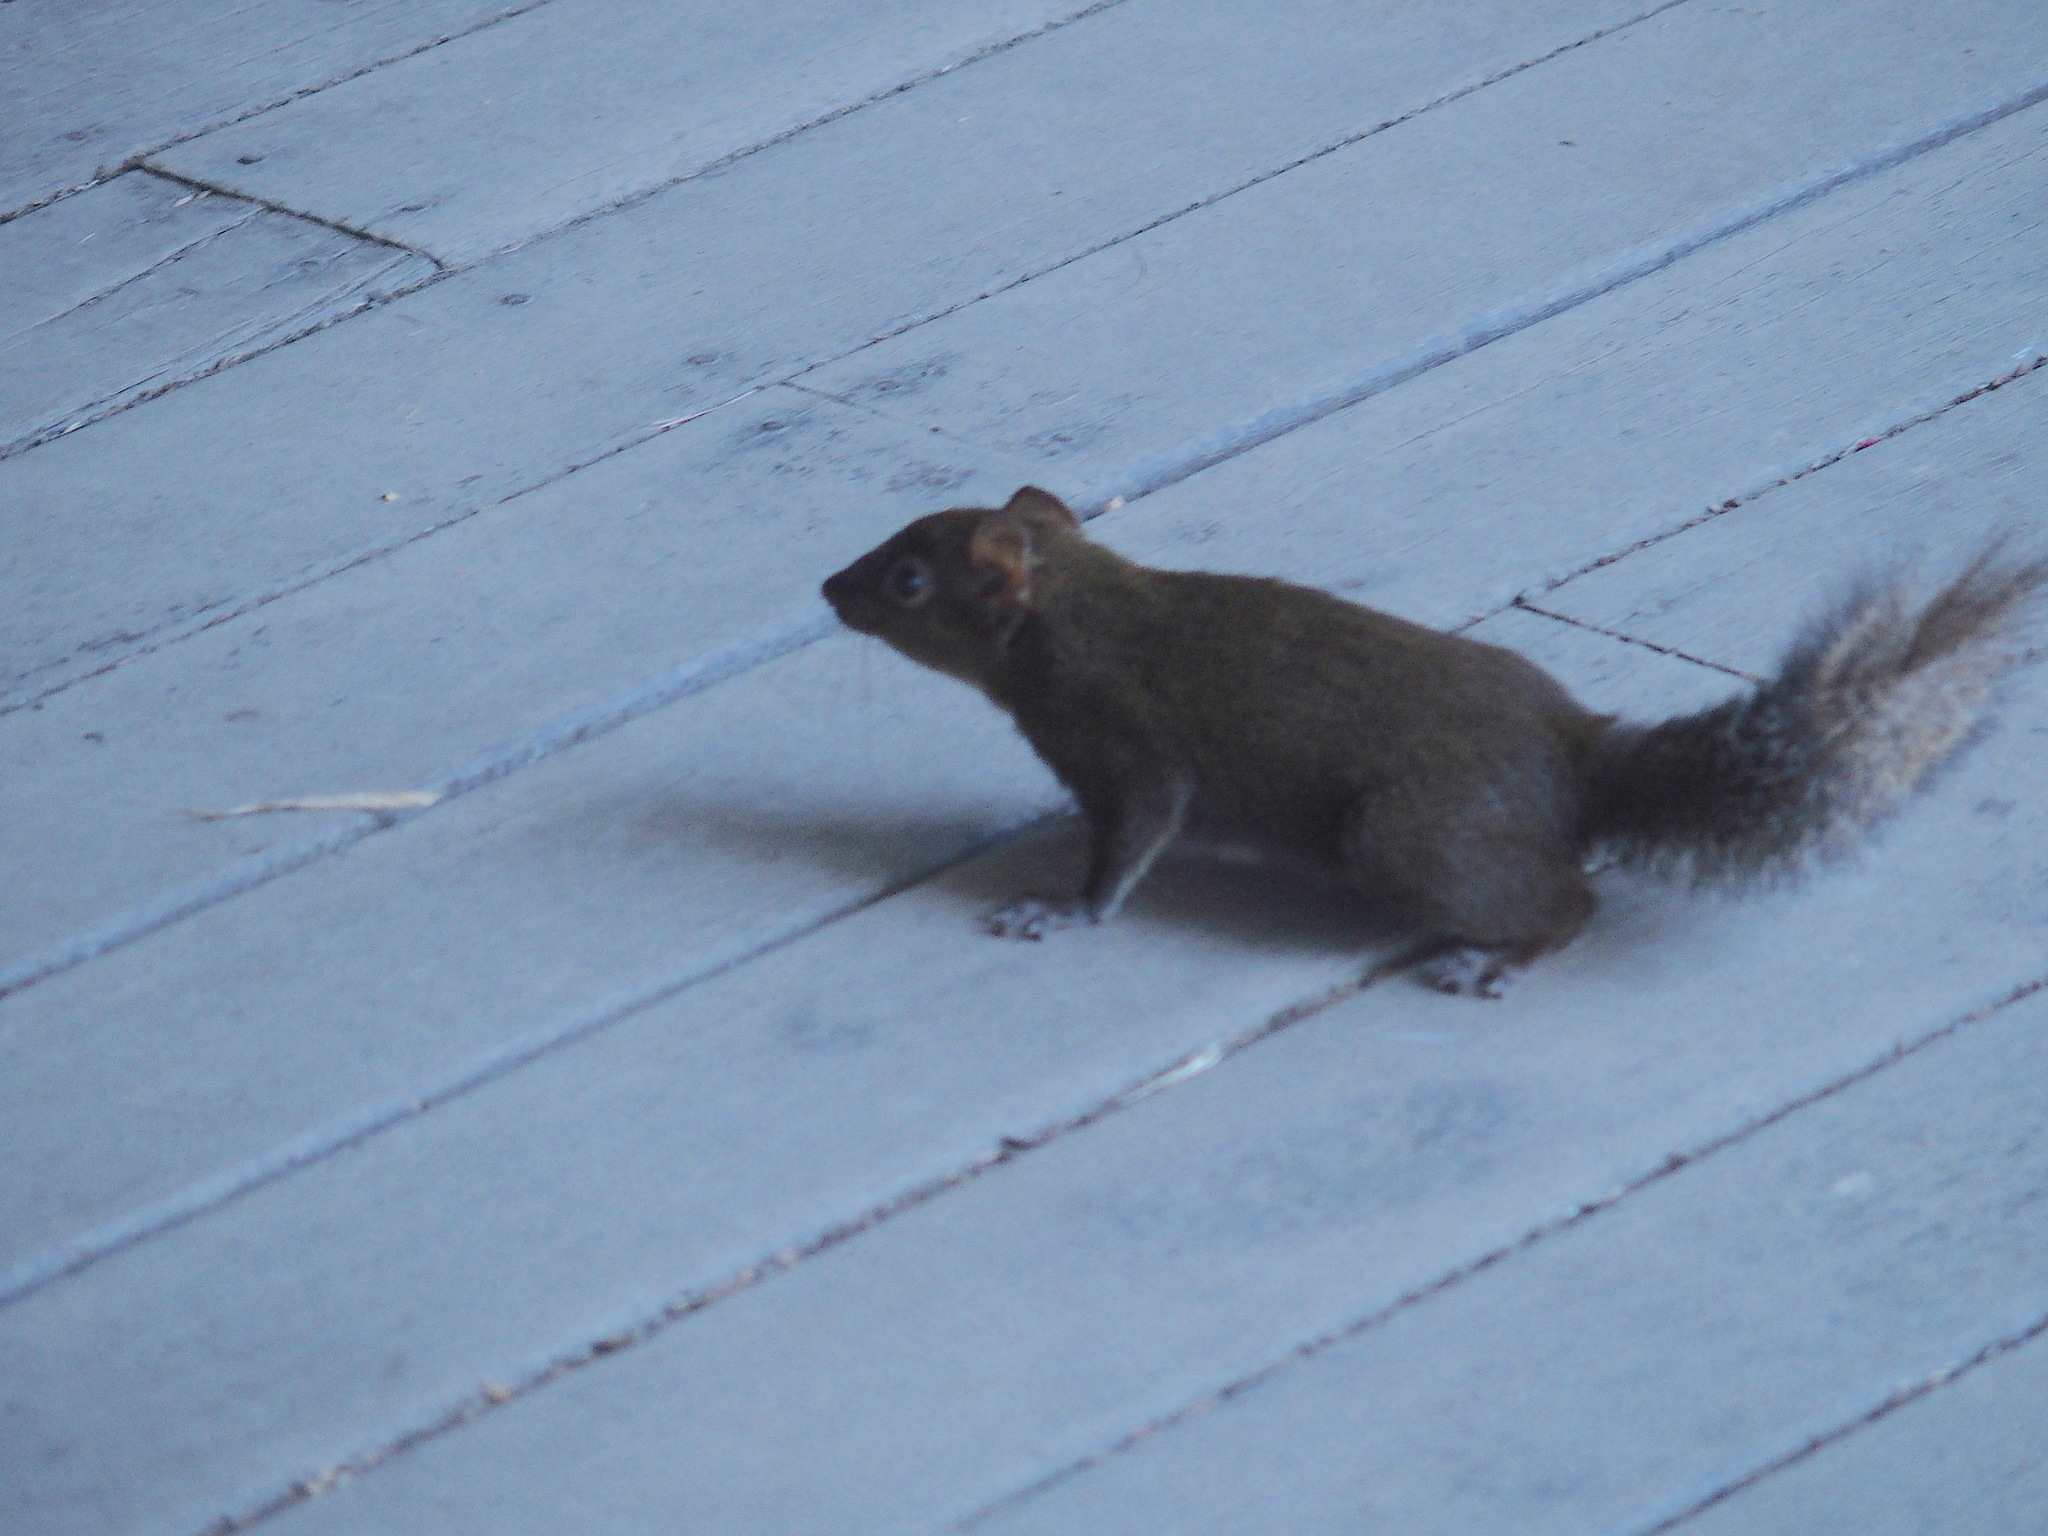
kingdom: Animalia
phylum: Chordata
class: Mammalia
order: Rodentia
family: Sciuridae
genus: Dremomys
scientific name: Dremomys pernyi
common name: Perny's long-nosed squirrel
